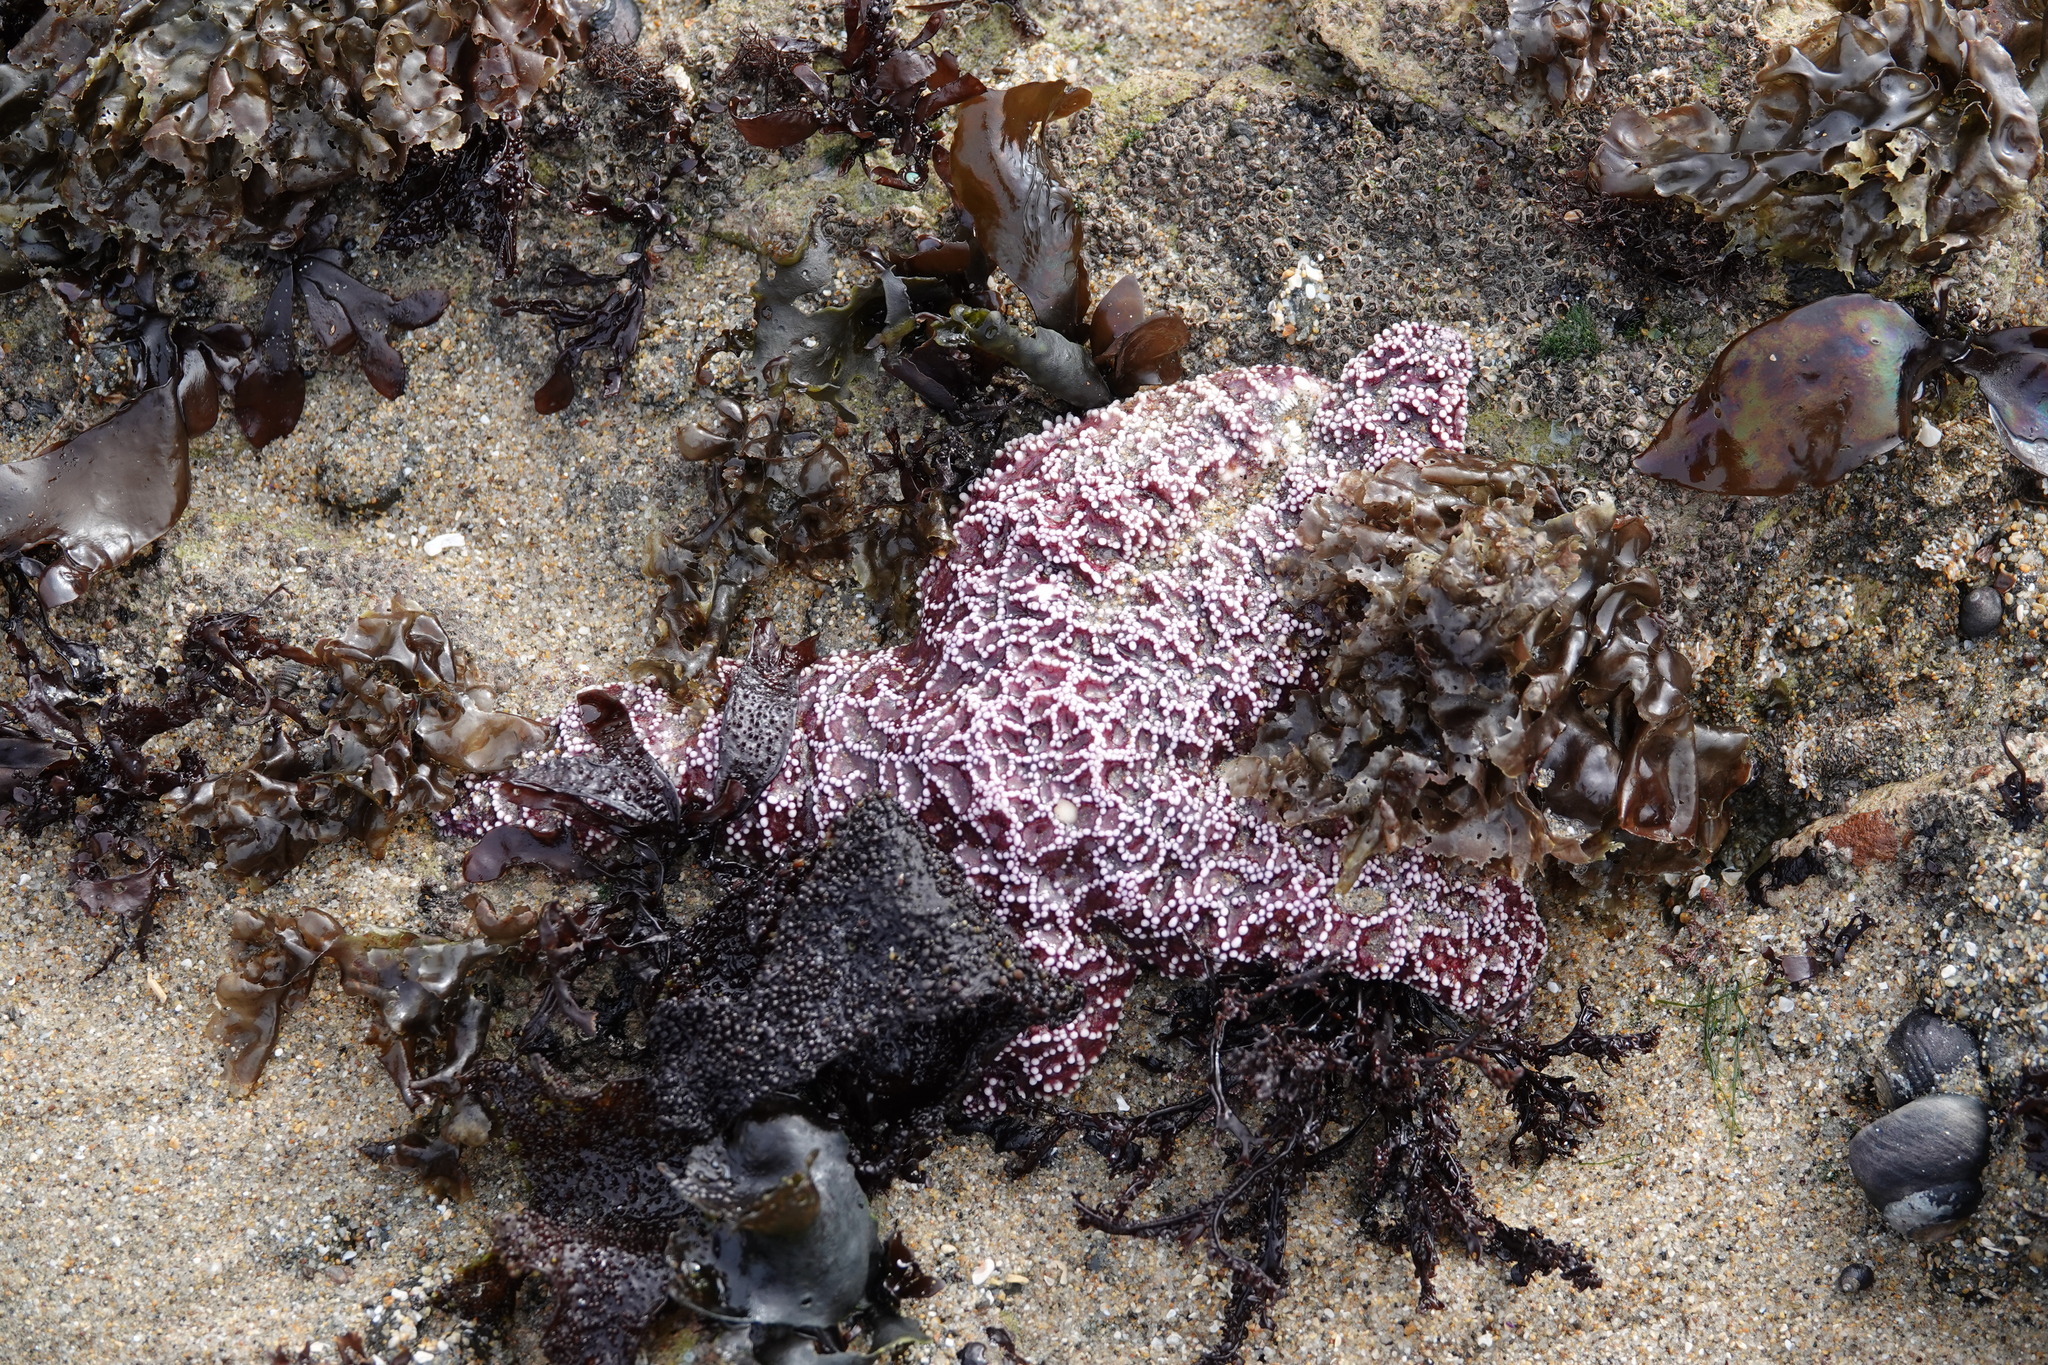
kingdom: Animalia
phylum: Echinodermata
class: Asteroidea
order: Forcipulatida
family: Asteriidae
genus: Pisaster
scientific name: Pisaster ochraceus
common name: Ochre stars
